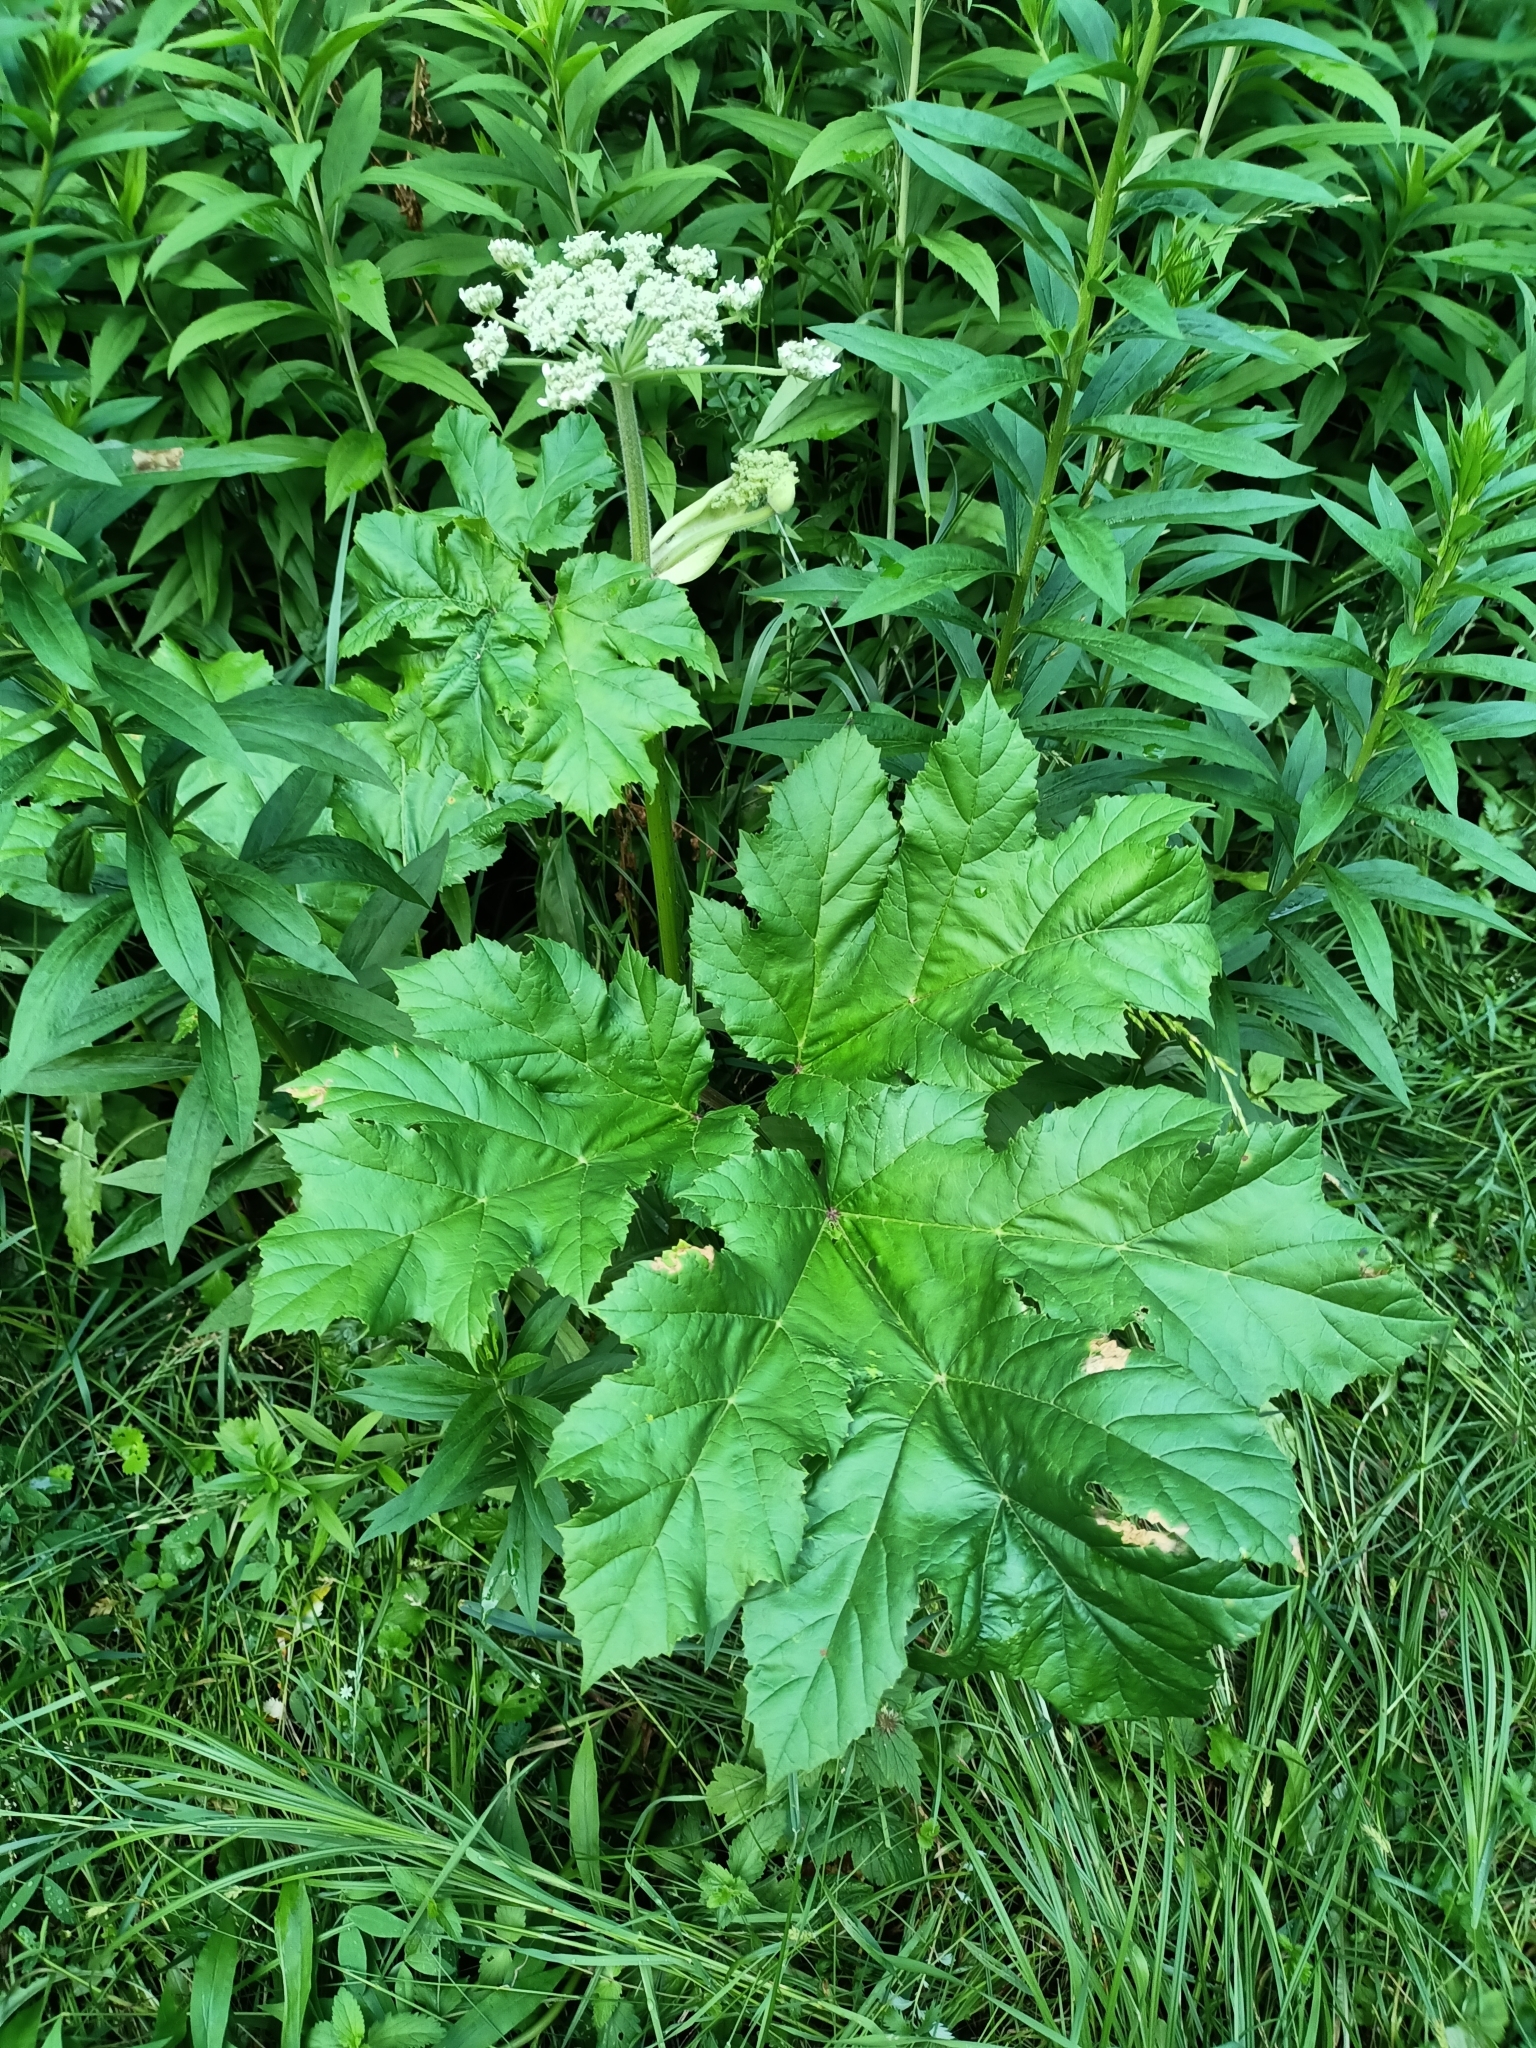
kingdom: Plantae
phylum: Tracheophyta
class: Magnoliopsida
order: Apiales
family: Apiaceae
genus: Heracleum
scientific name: Heracleum sosnowskyi
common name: Sosnowsky's hogweed
